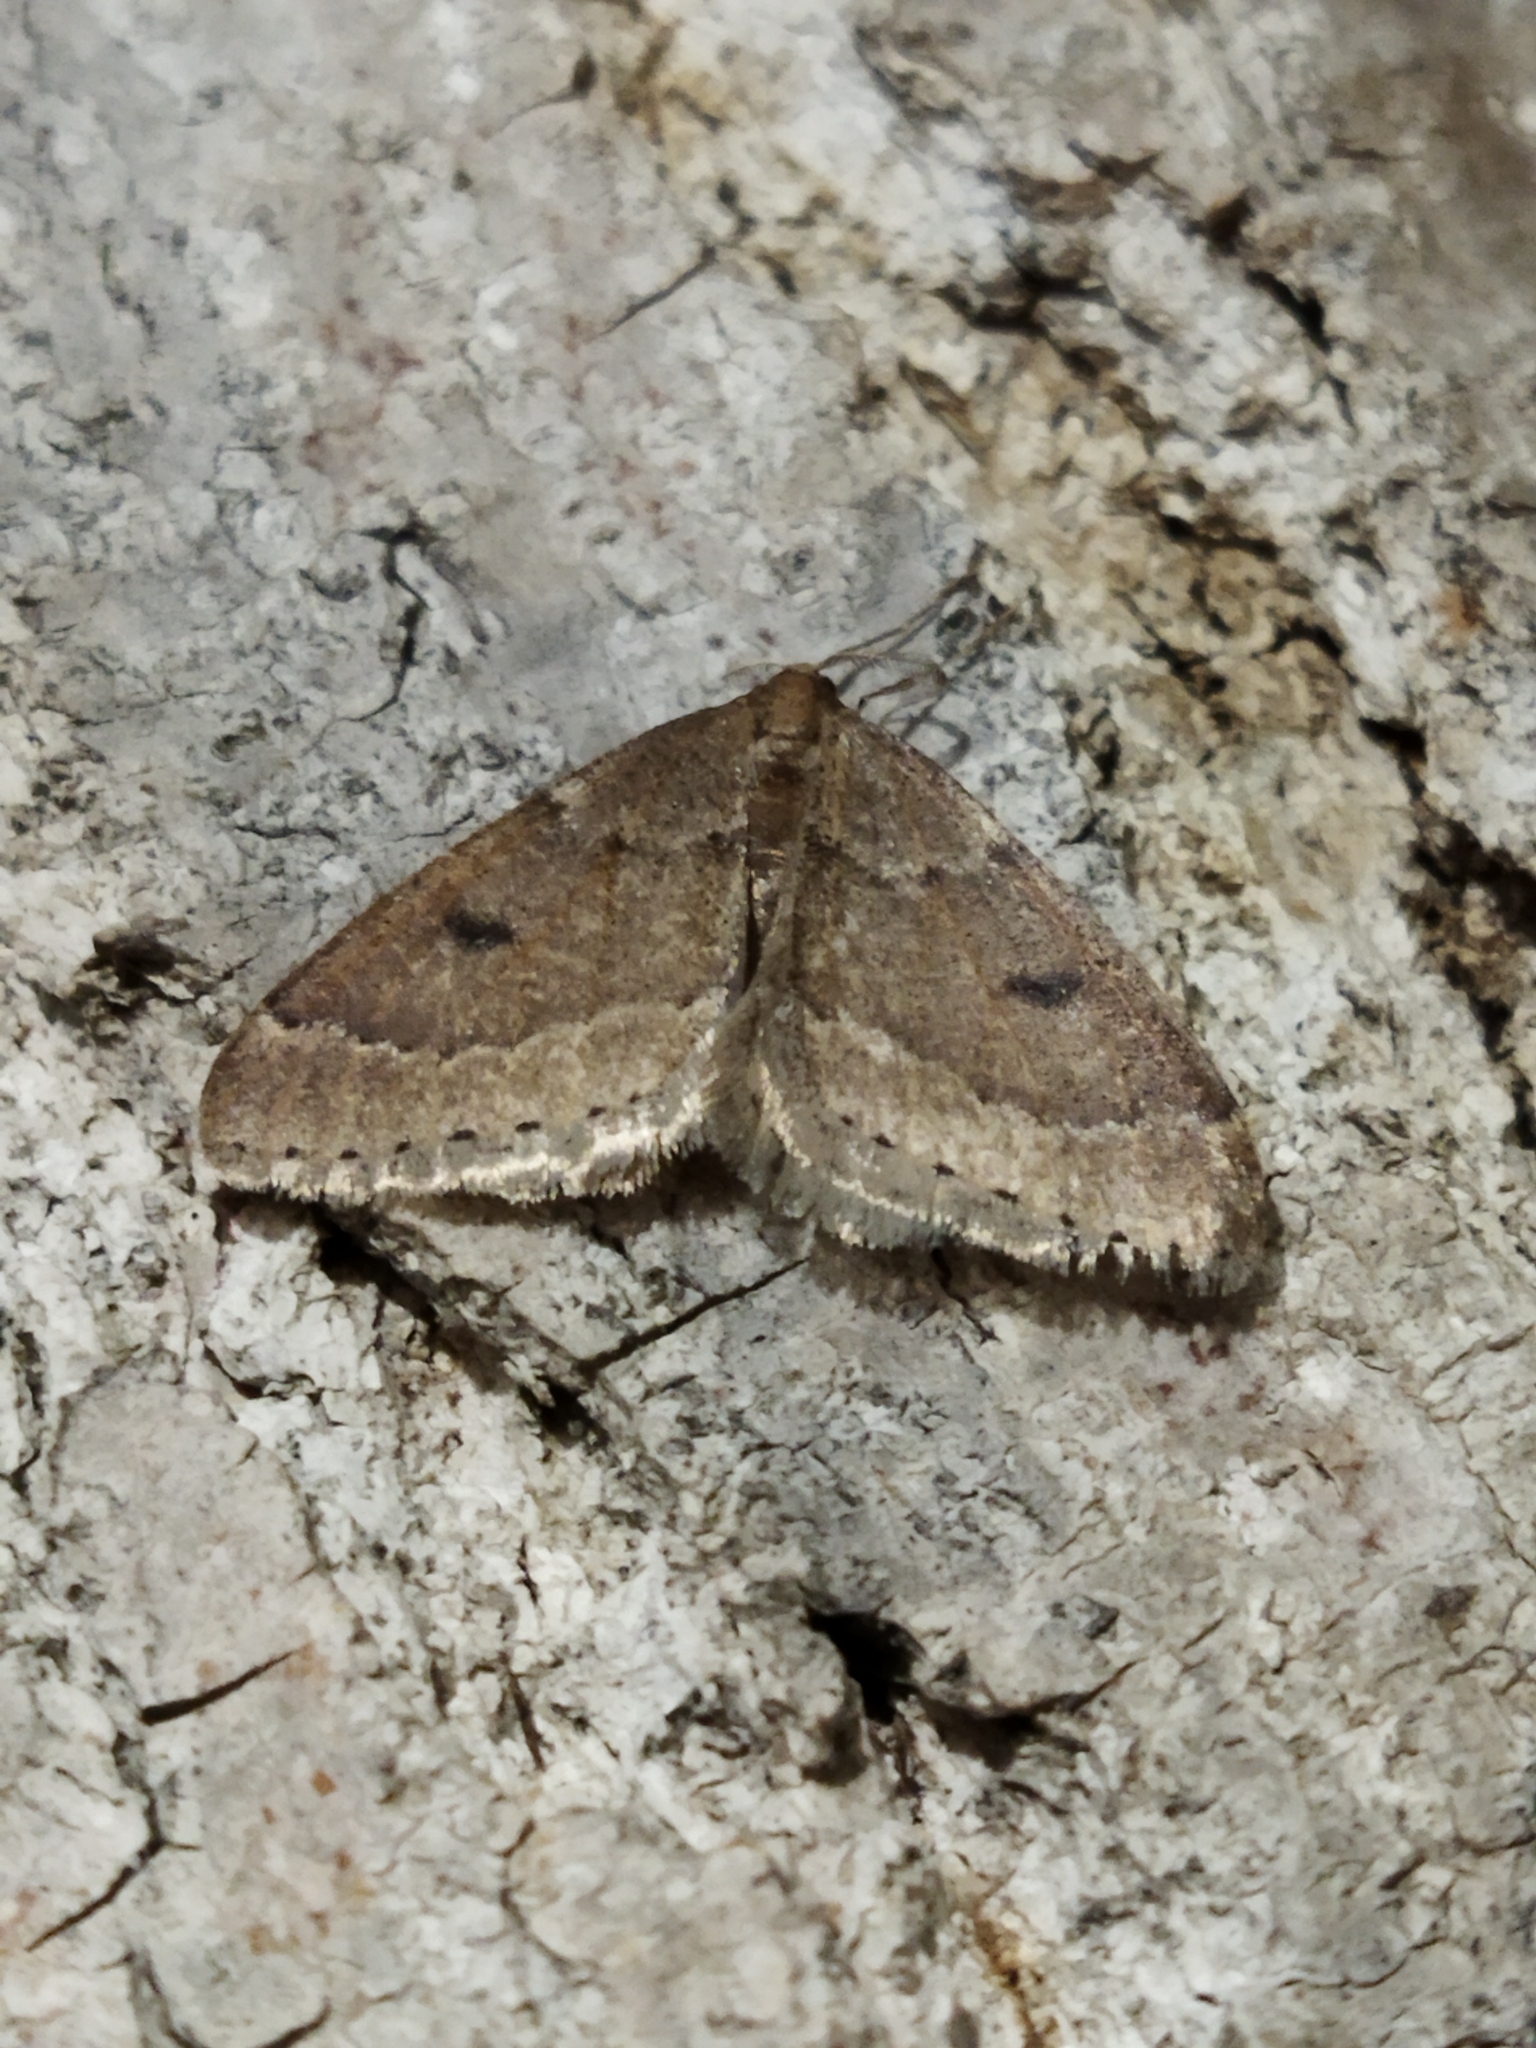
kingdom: Animalia
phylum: Arthropoda
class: Insecta
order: Lepidoptera
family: Geometridae
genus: Theria
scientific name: Theria rupicapraria
